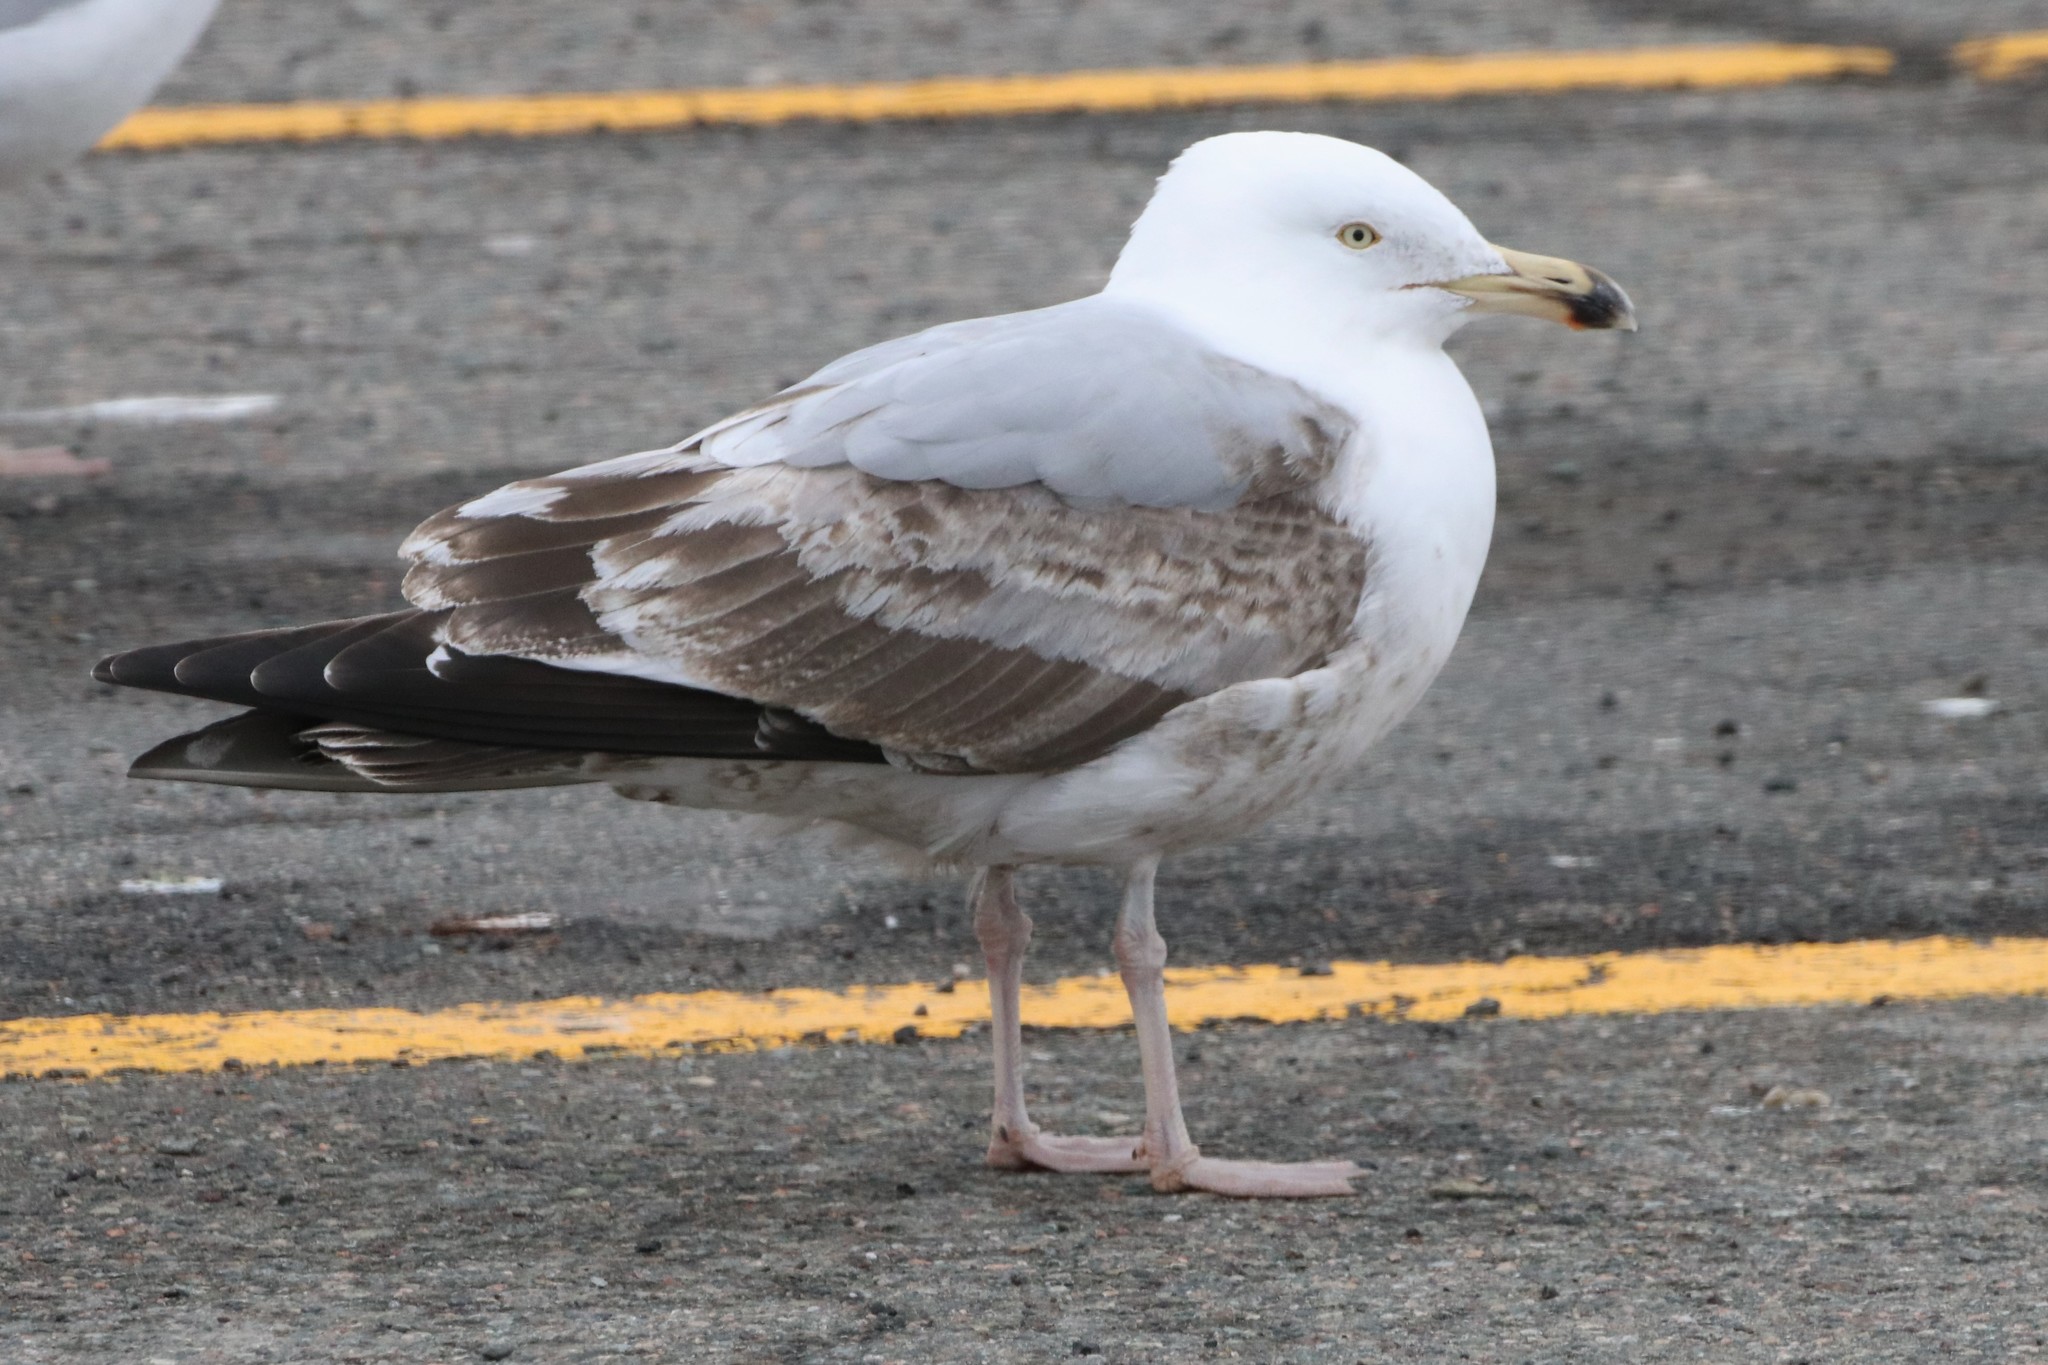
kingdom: Animalia
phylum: Chordata
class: Aves
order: Charadriiformes
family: Laridae
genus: Larus
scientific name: Larus argentatus
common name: Herring gull
